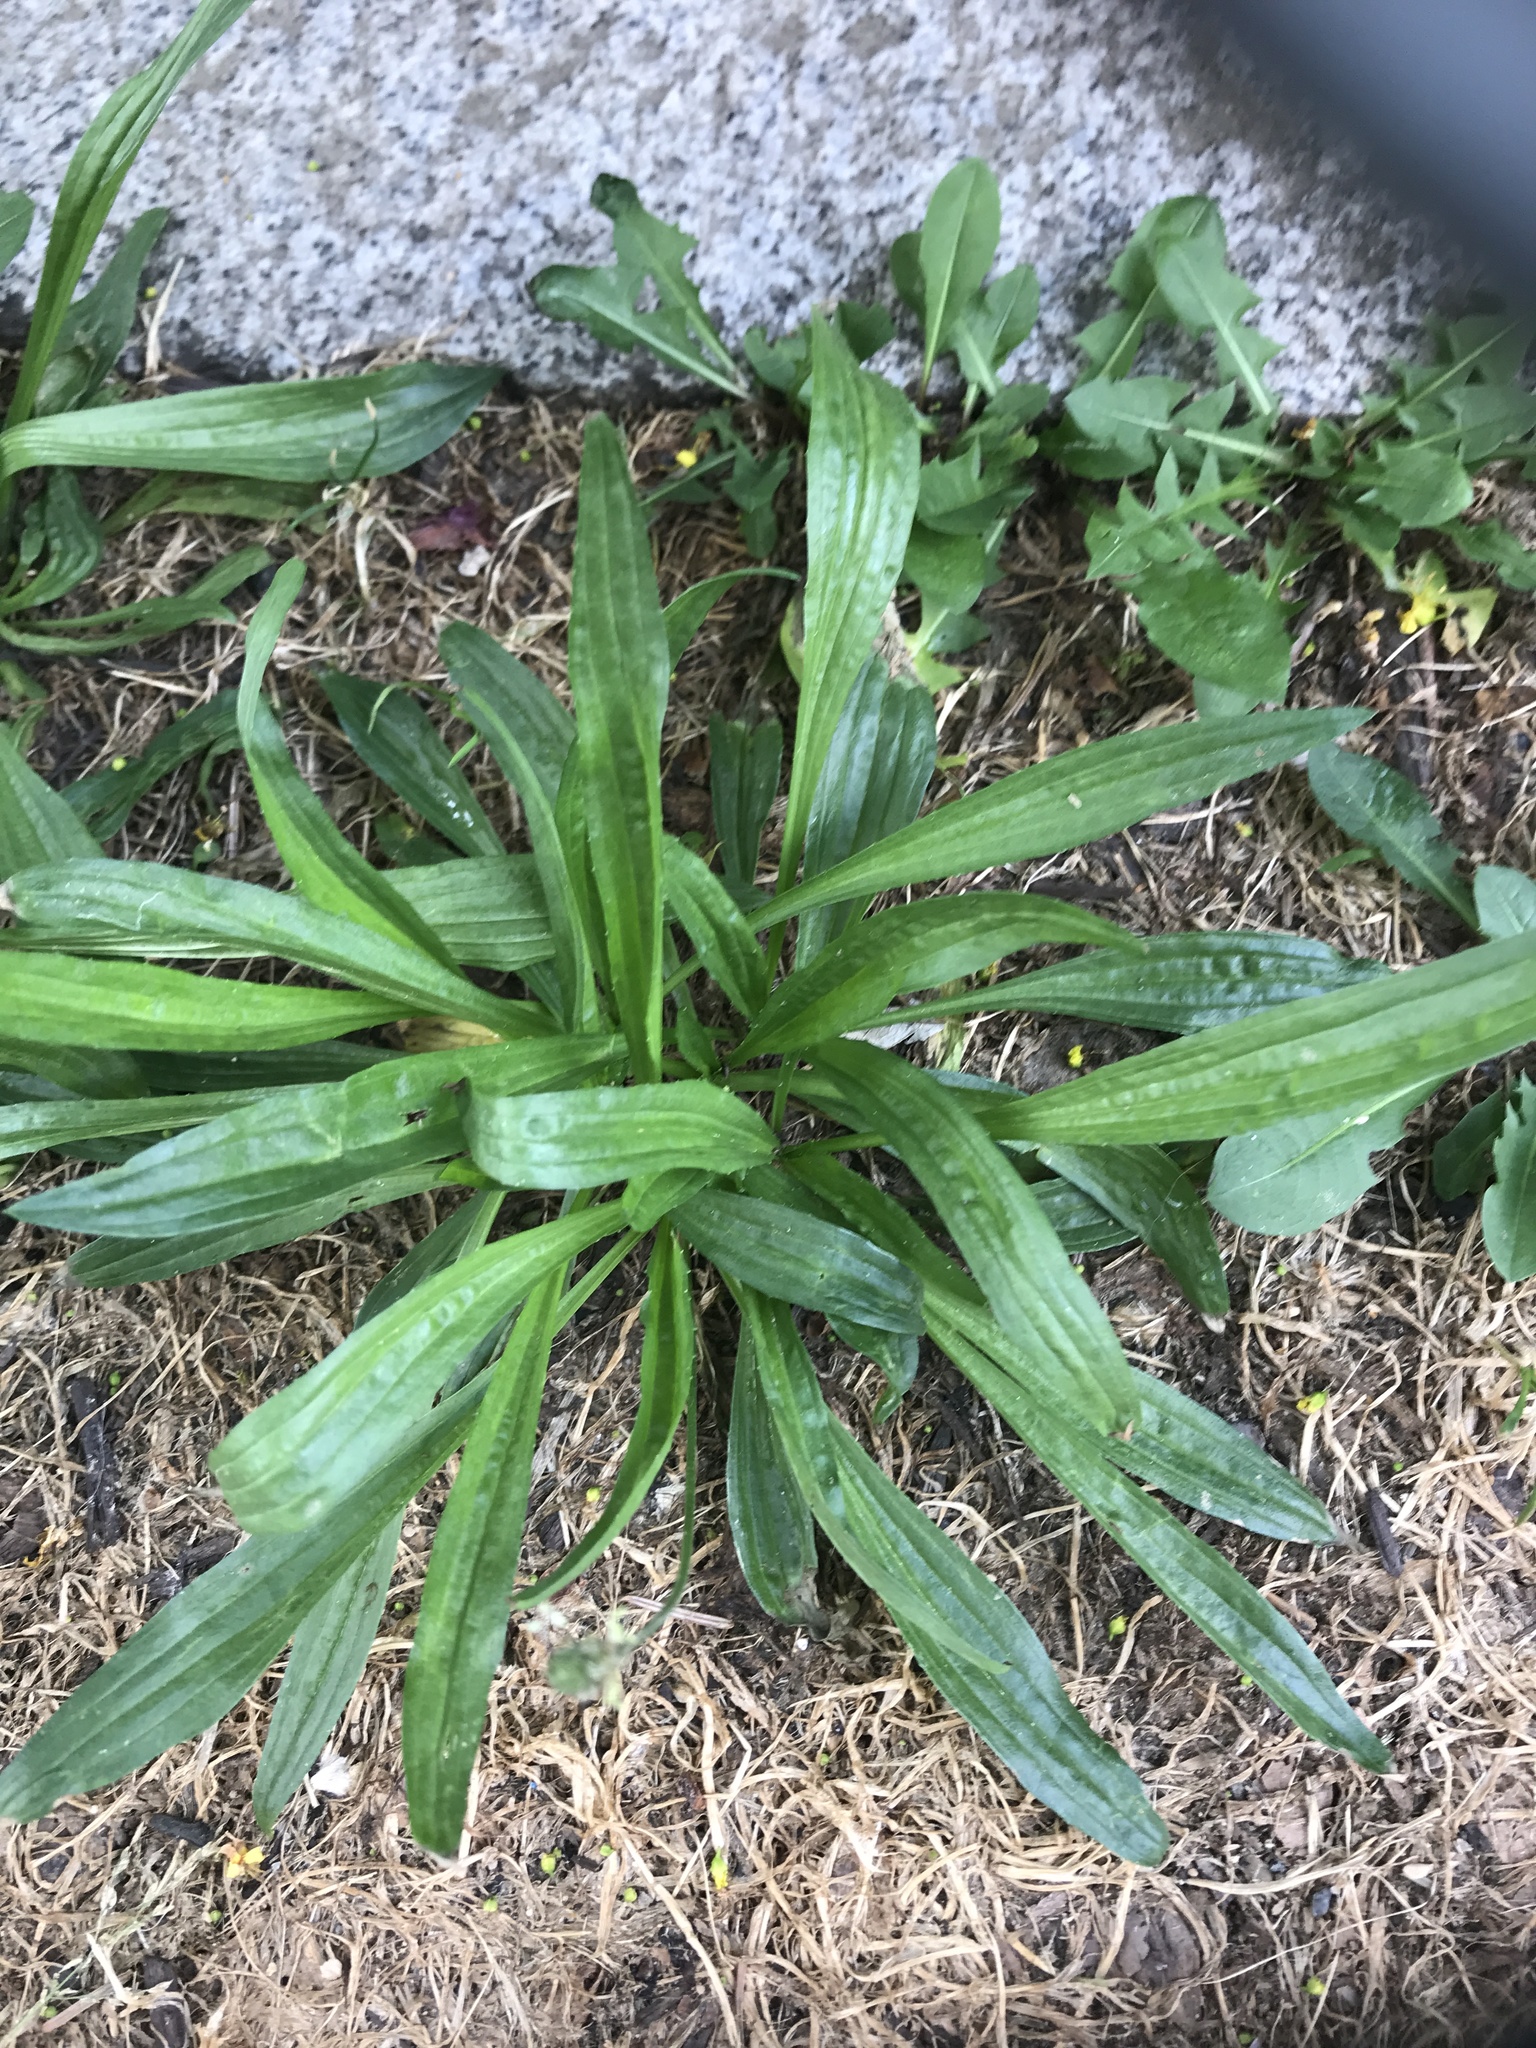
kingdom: Plantae
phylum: Tracheophyta
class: Magnoliopsida
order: Lamiales
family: Plantaginaceae
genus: Plantago
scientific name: Plantago lanceolata
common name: Ribwort plantain
